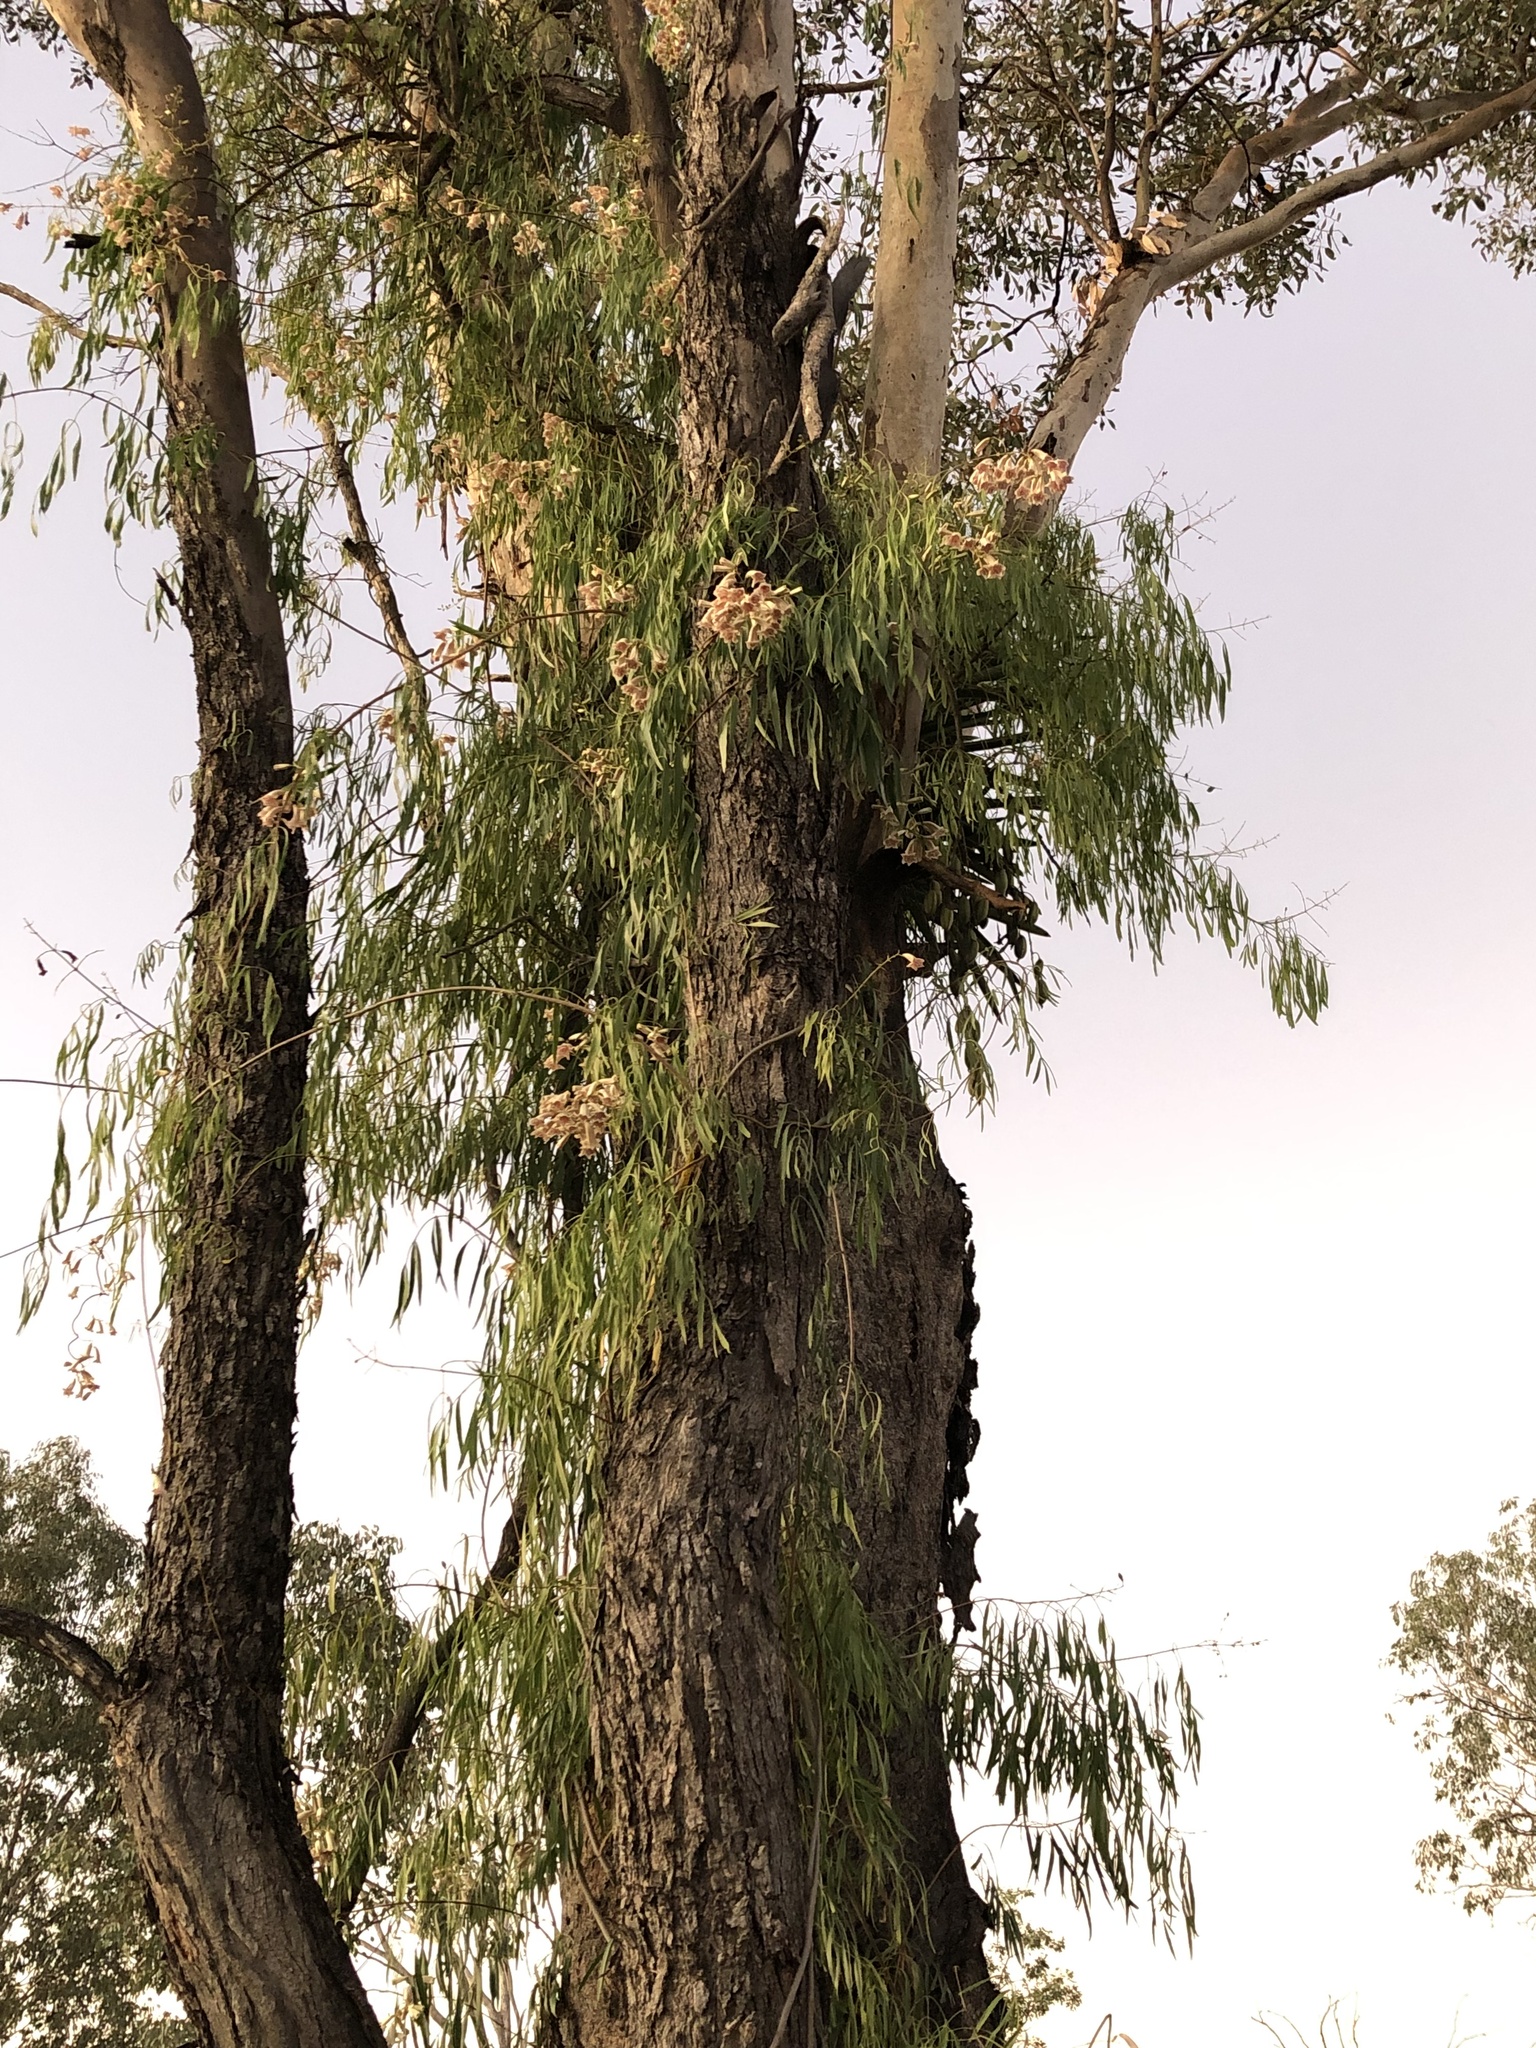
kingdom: Plantae
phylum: Tracheophyta
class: Magnoliopsida
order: Lamiales
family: Bignoniaceae
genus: Pandorea
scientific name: Pandorea pandorana
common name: Wonga-wonga-vine
